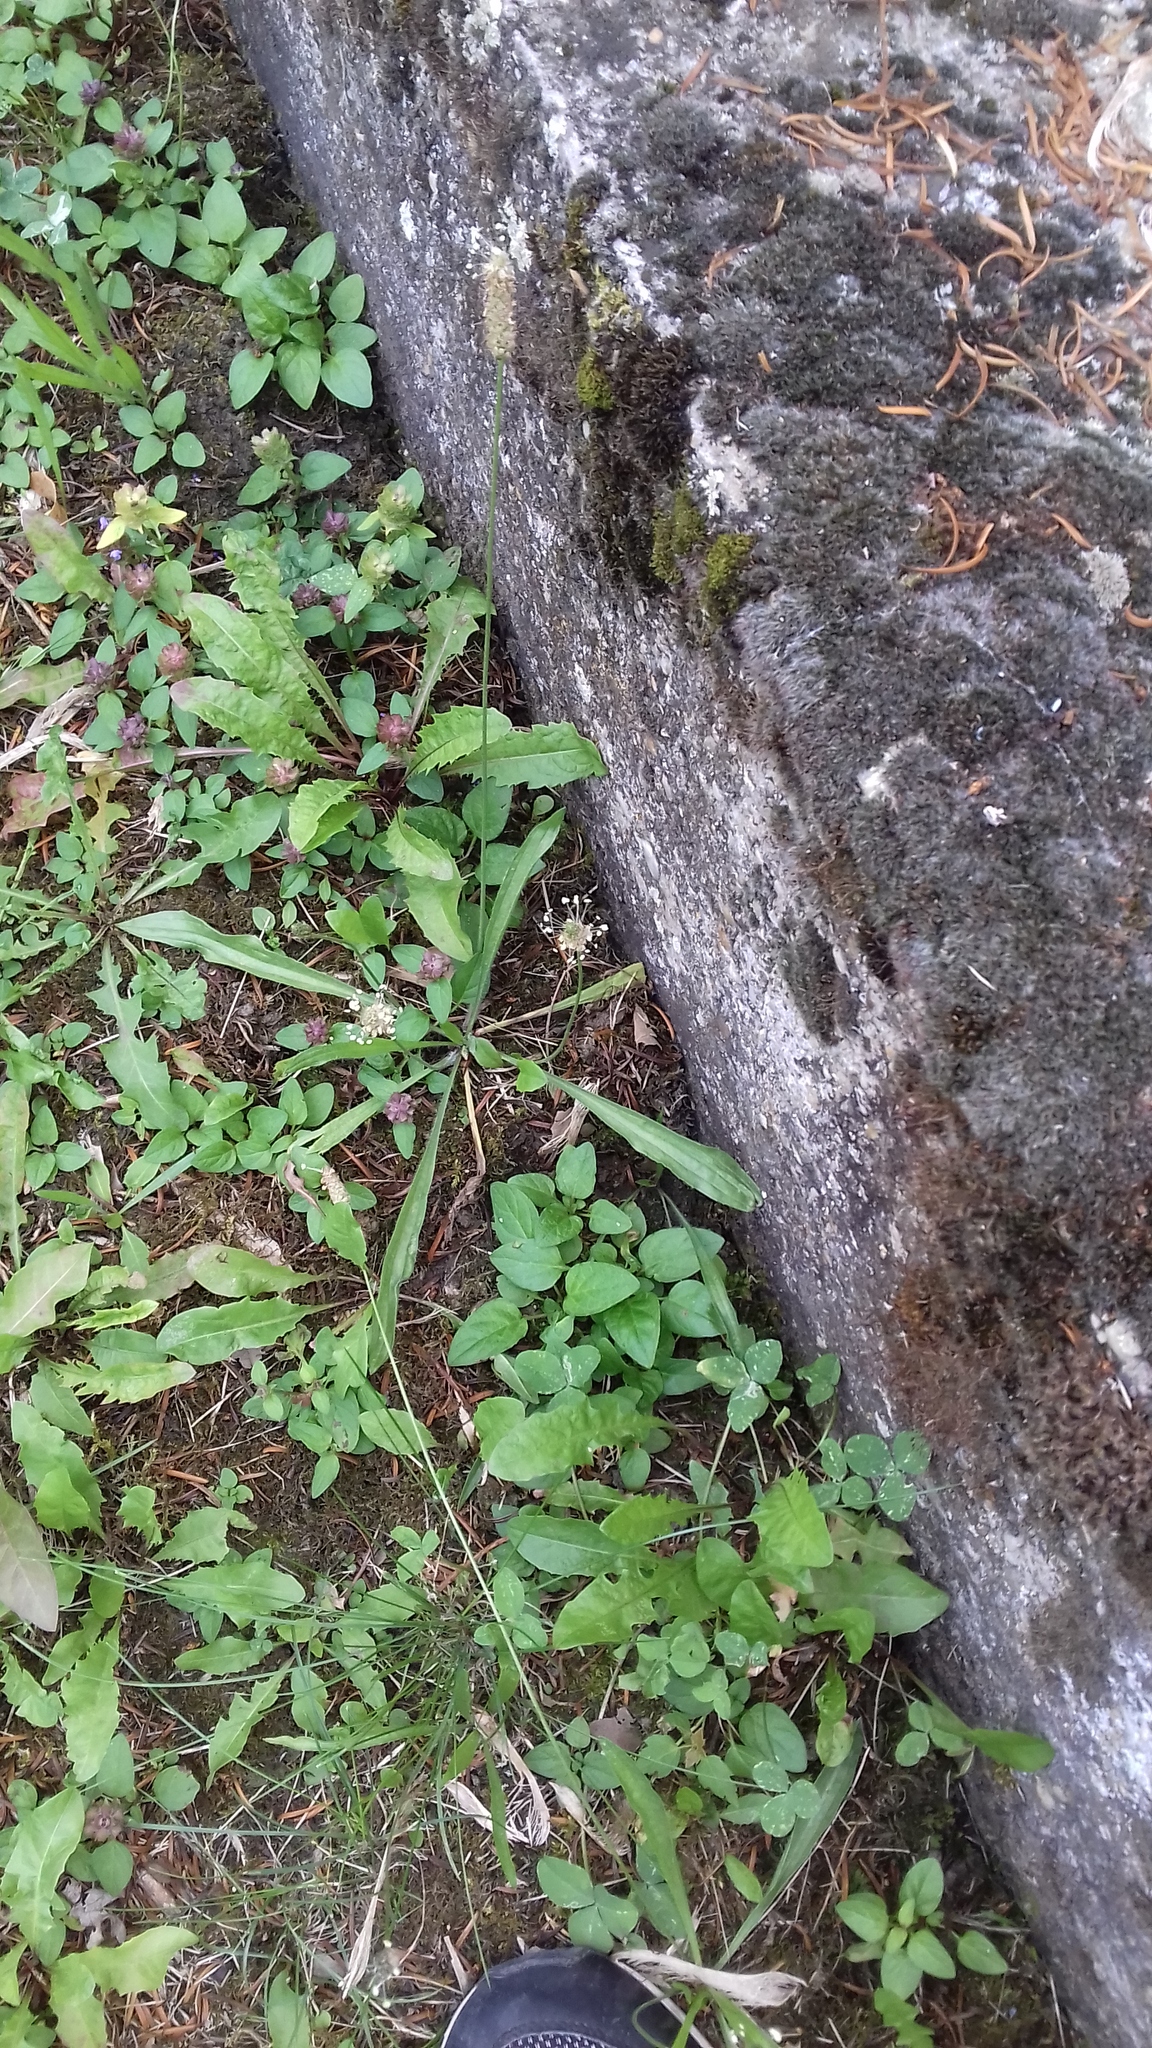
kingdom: Plantae
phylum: Tracheophyta
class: Magnoliopsida
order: Lamiales
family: Plantaginaceae
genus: Plantago
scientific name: Plantago lanceolata
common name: Ribwort plantain
